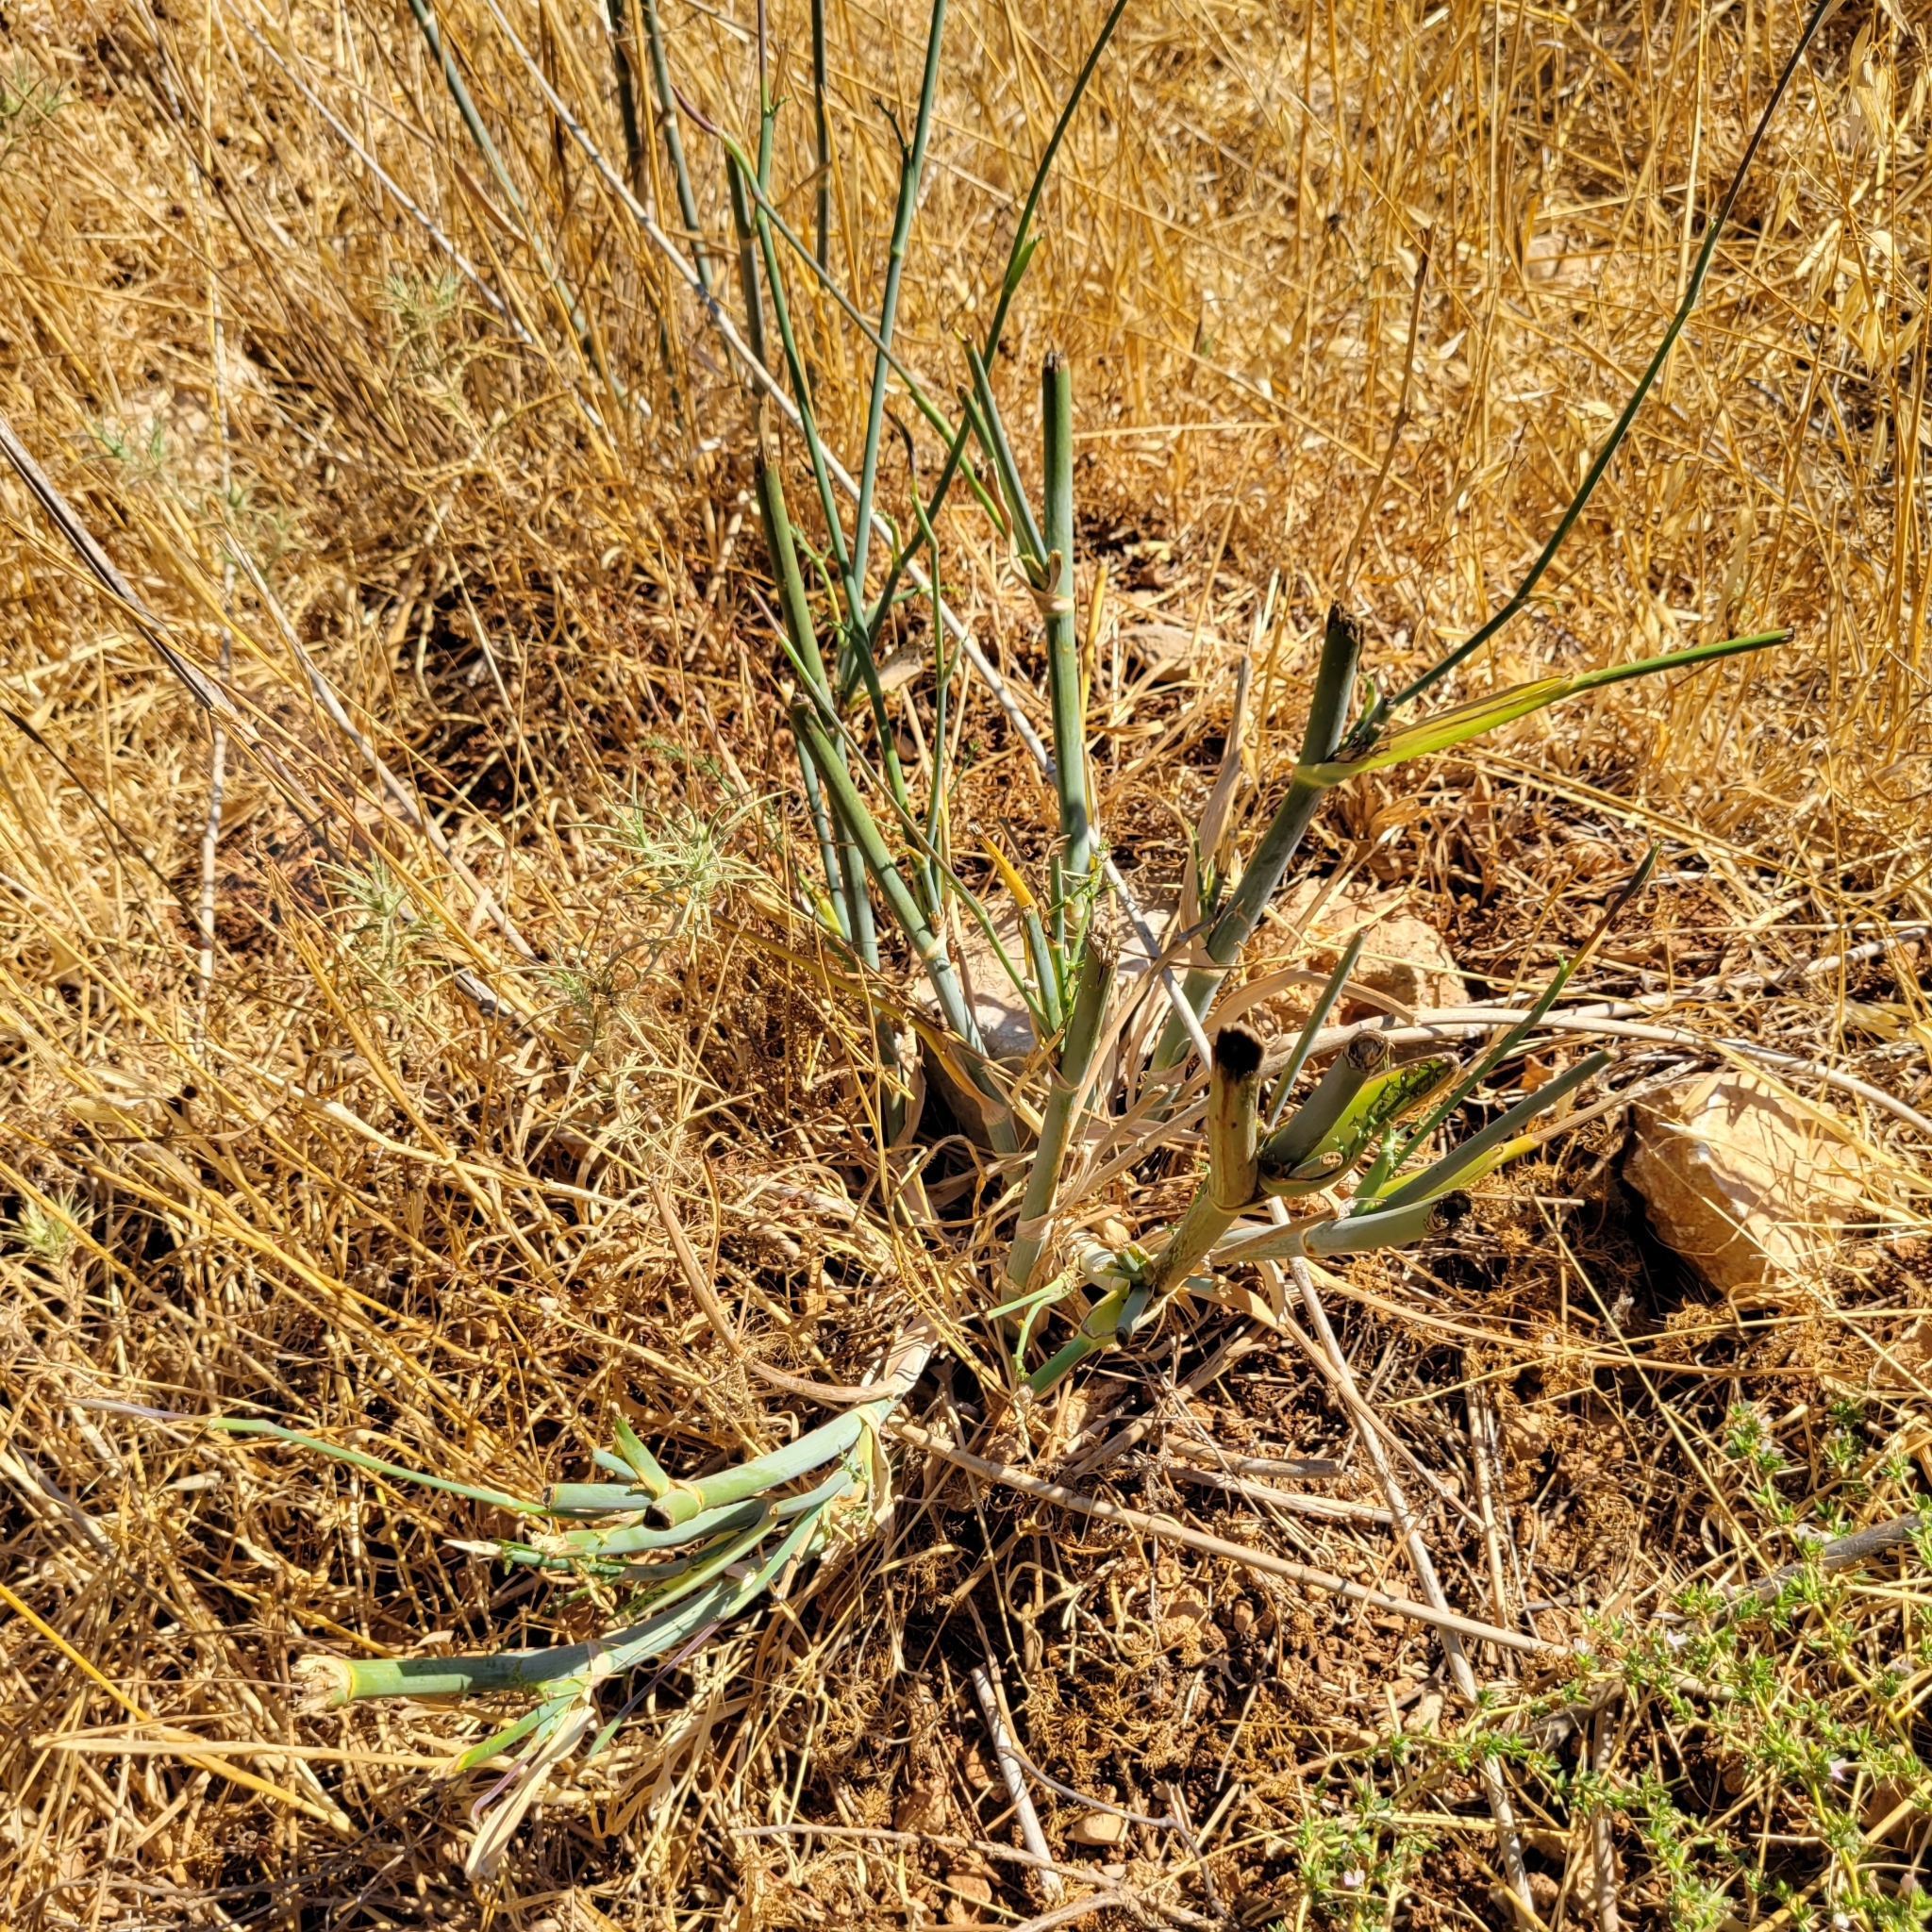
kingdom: Plantae
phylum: Tracheophyta
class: Magnoliopsida
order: Apiales
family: Apiaceae
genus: Foeniculum
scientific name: Foeniculum vulgare
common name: Fennel
